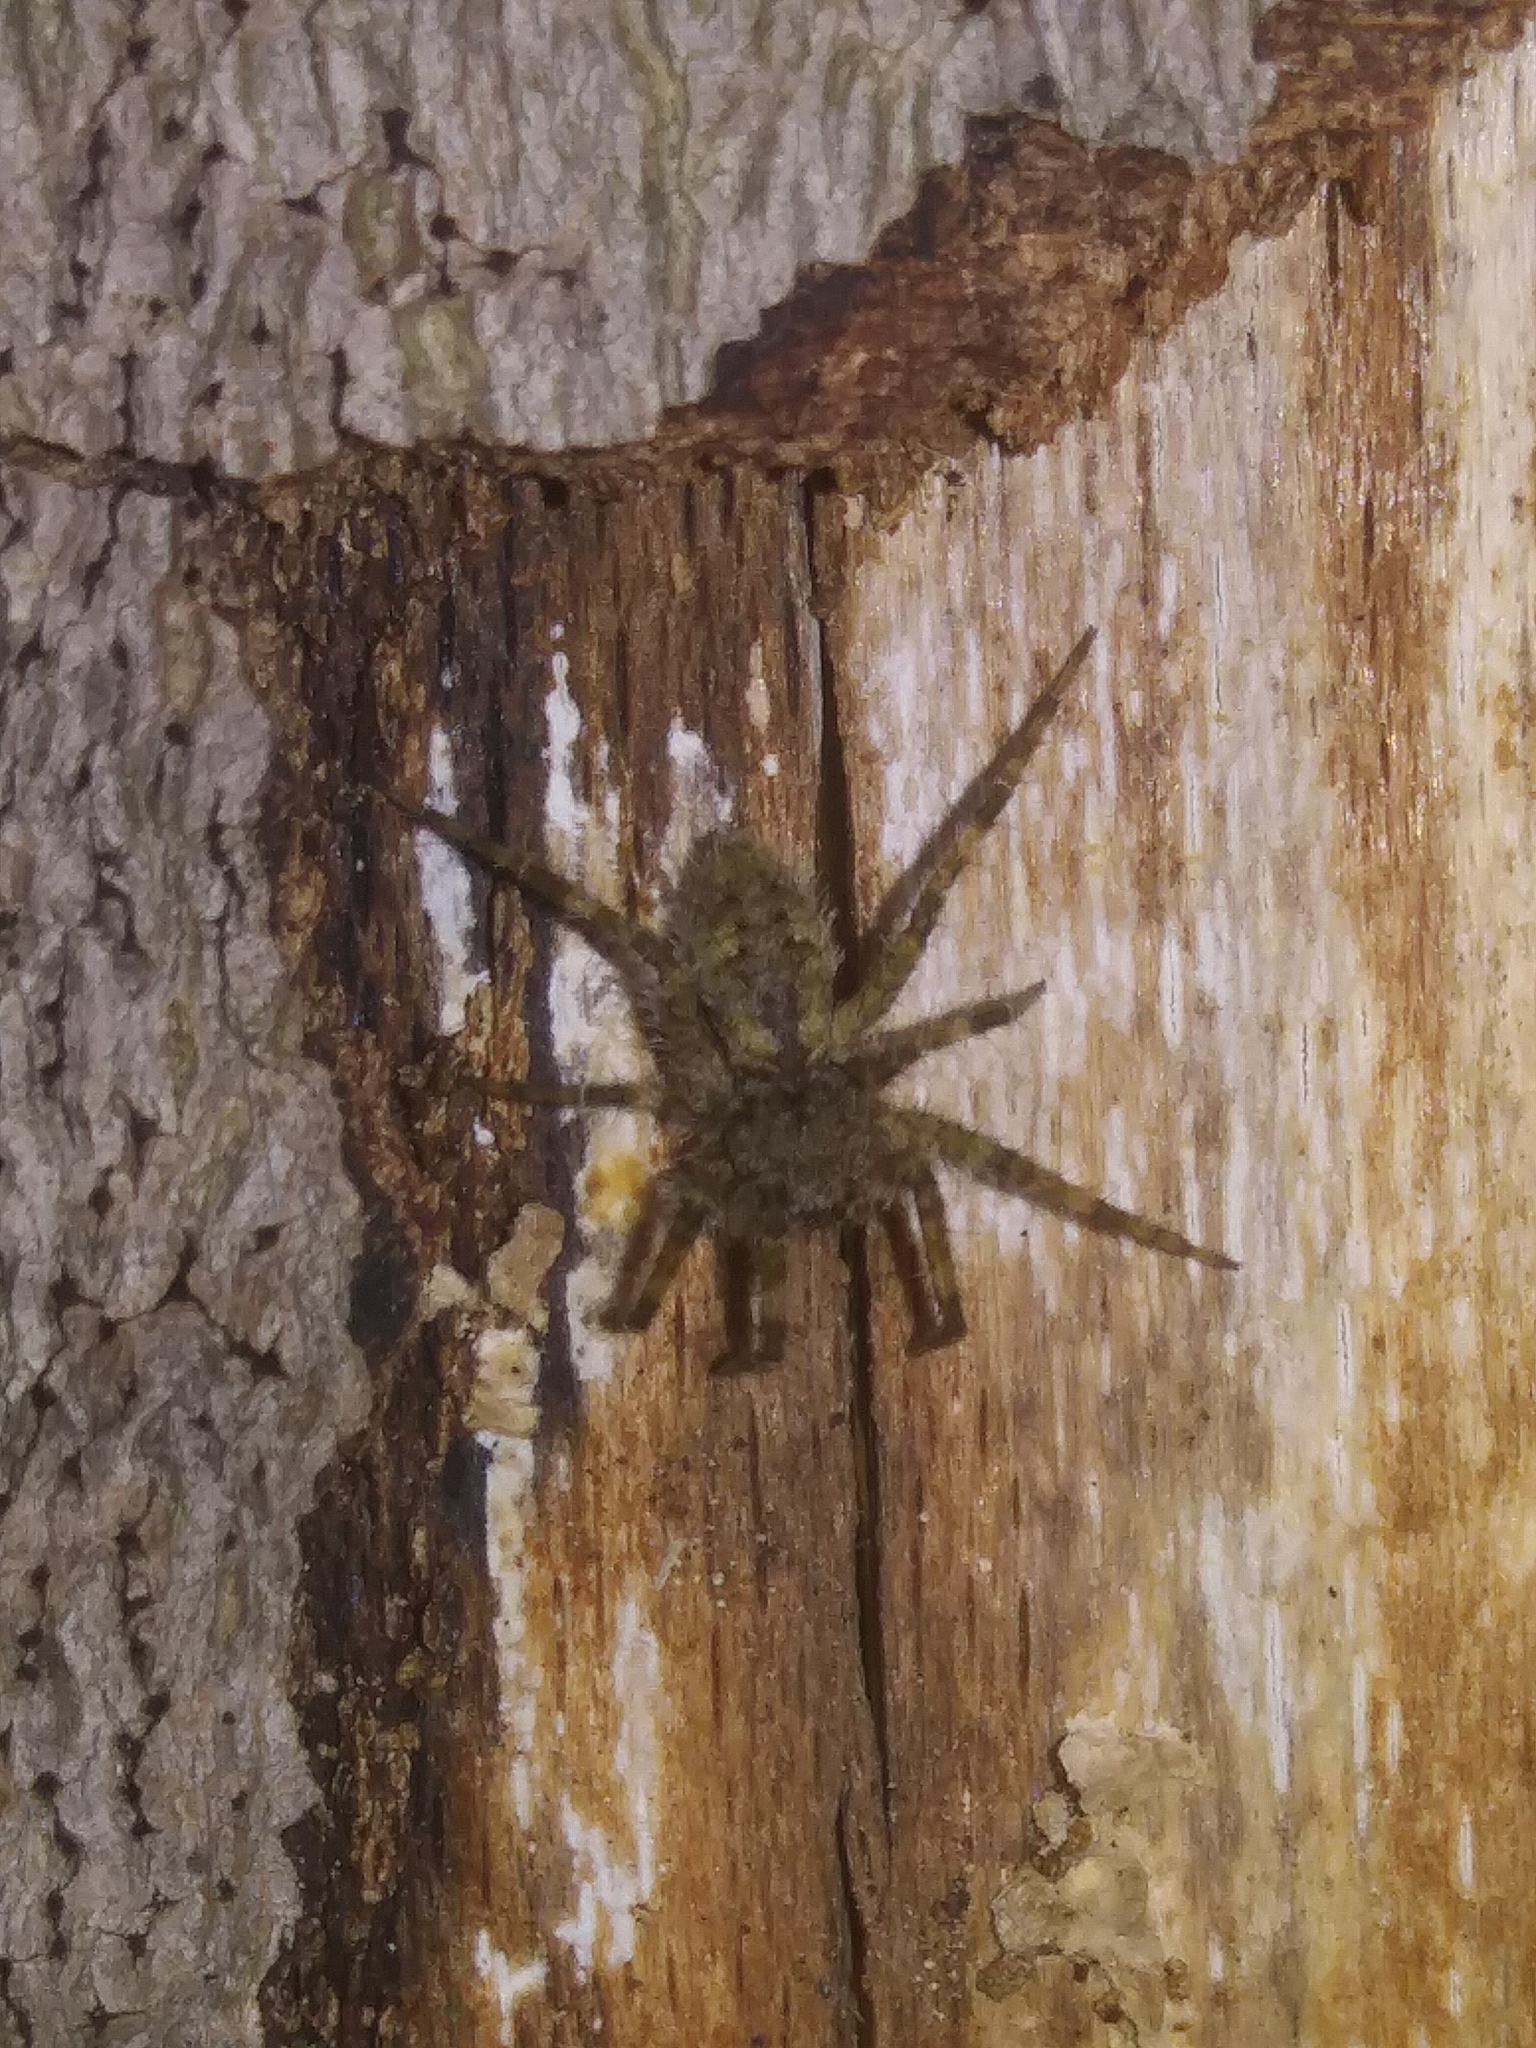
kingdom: Animalia
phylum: Arthropoda
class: Arachnida
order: Araneae
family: Pisauridae
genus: Dolomedes
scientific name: Dolomedes albineus
